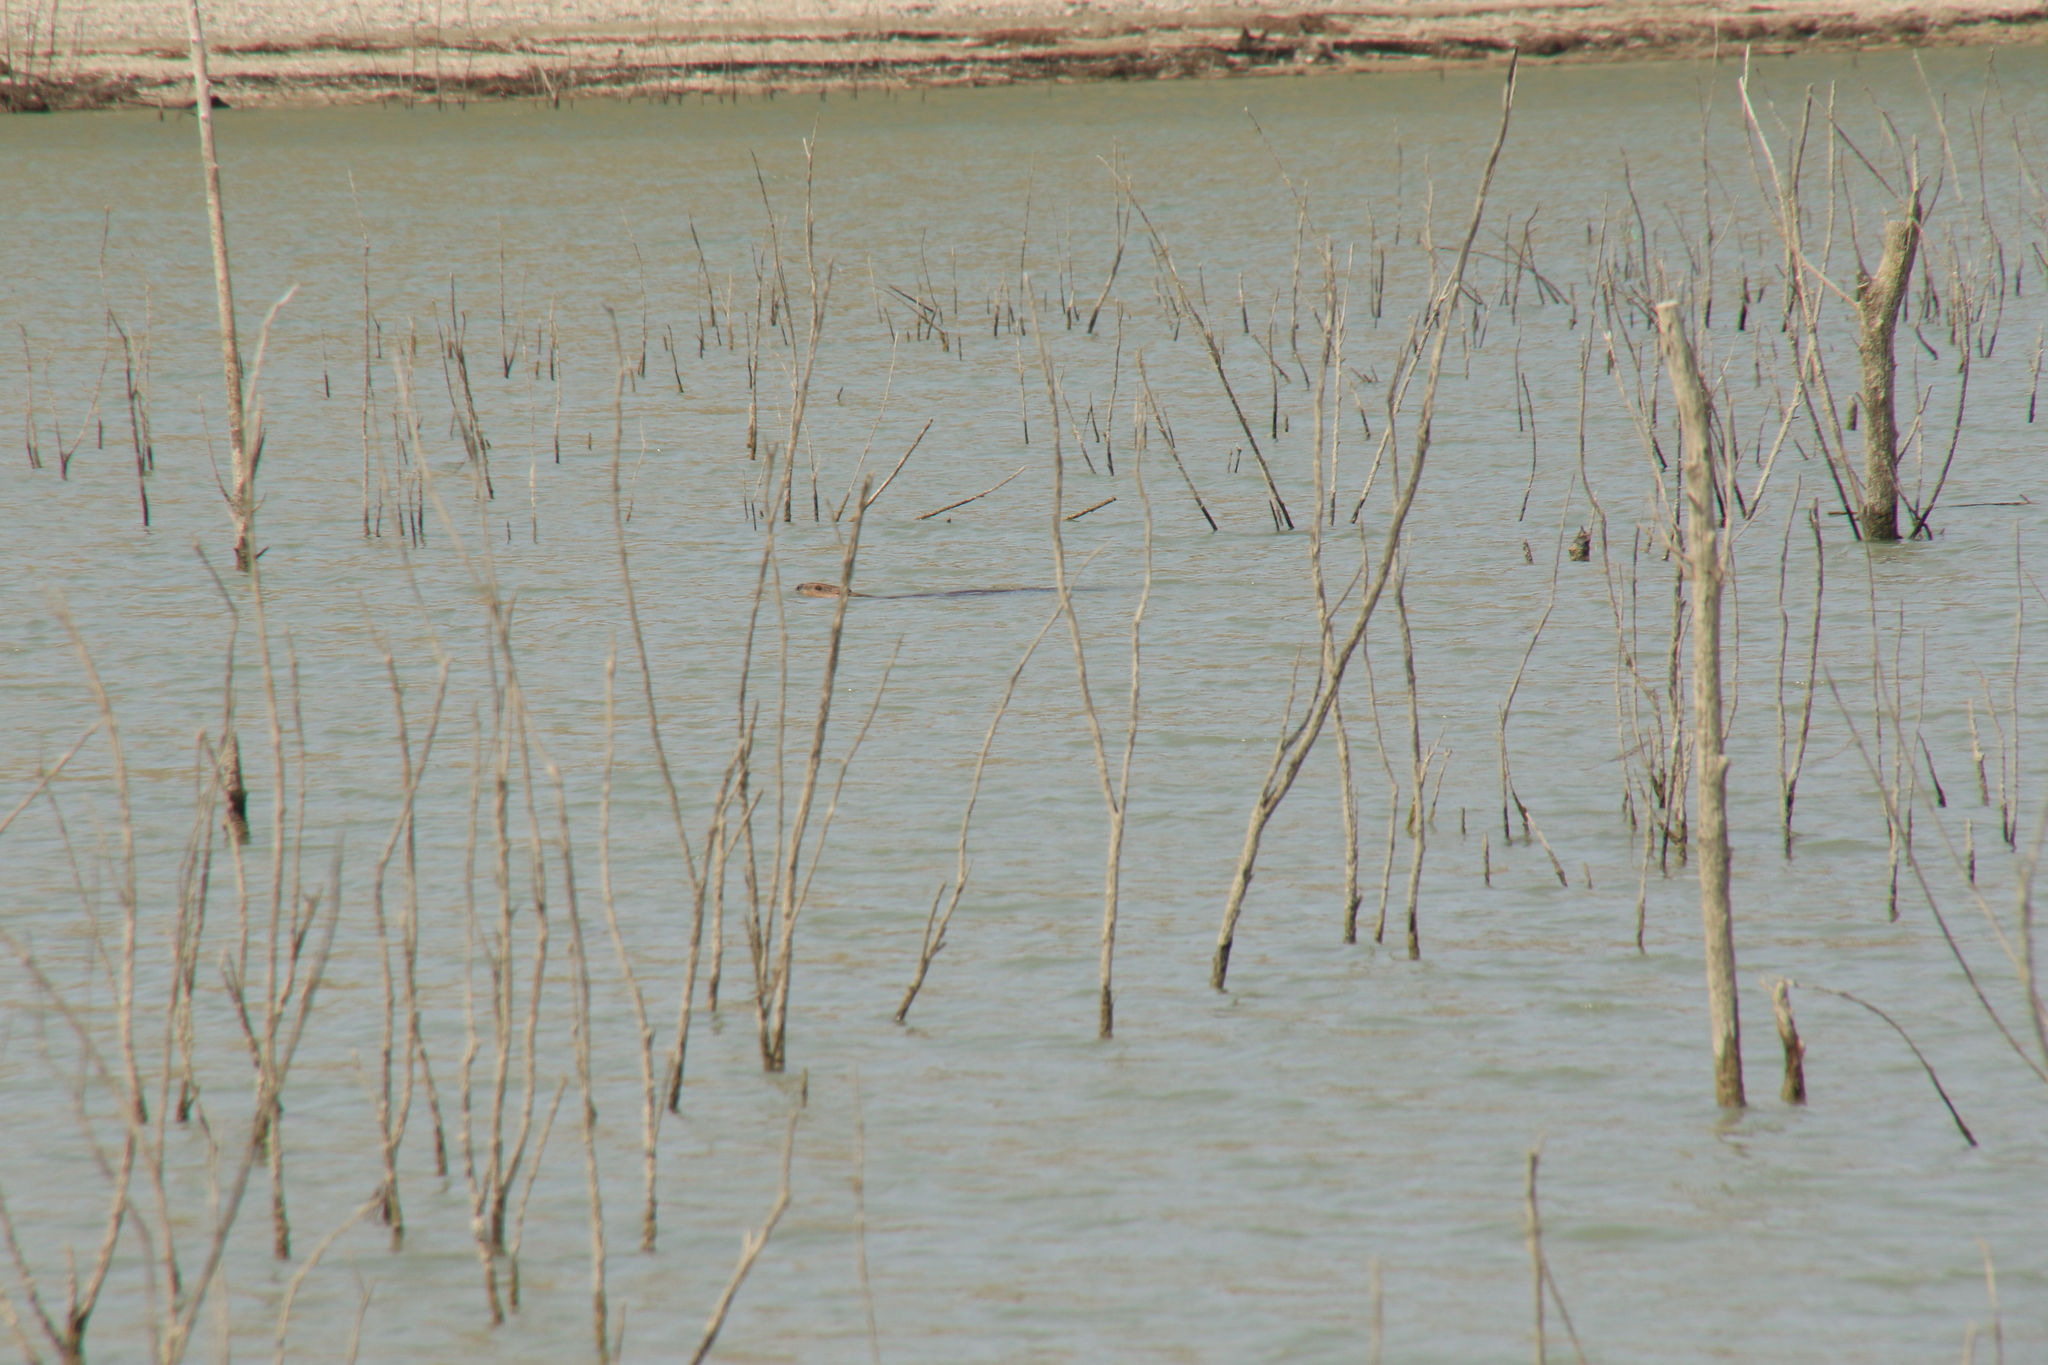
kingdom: Animalia
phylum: Chordata
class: Mammalia
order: Rodentia
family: Castoridae
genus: Castor
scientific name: Castor canadensis
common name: American beaver
